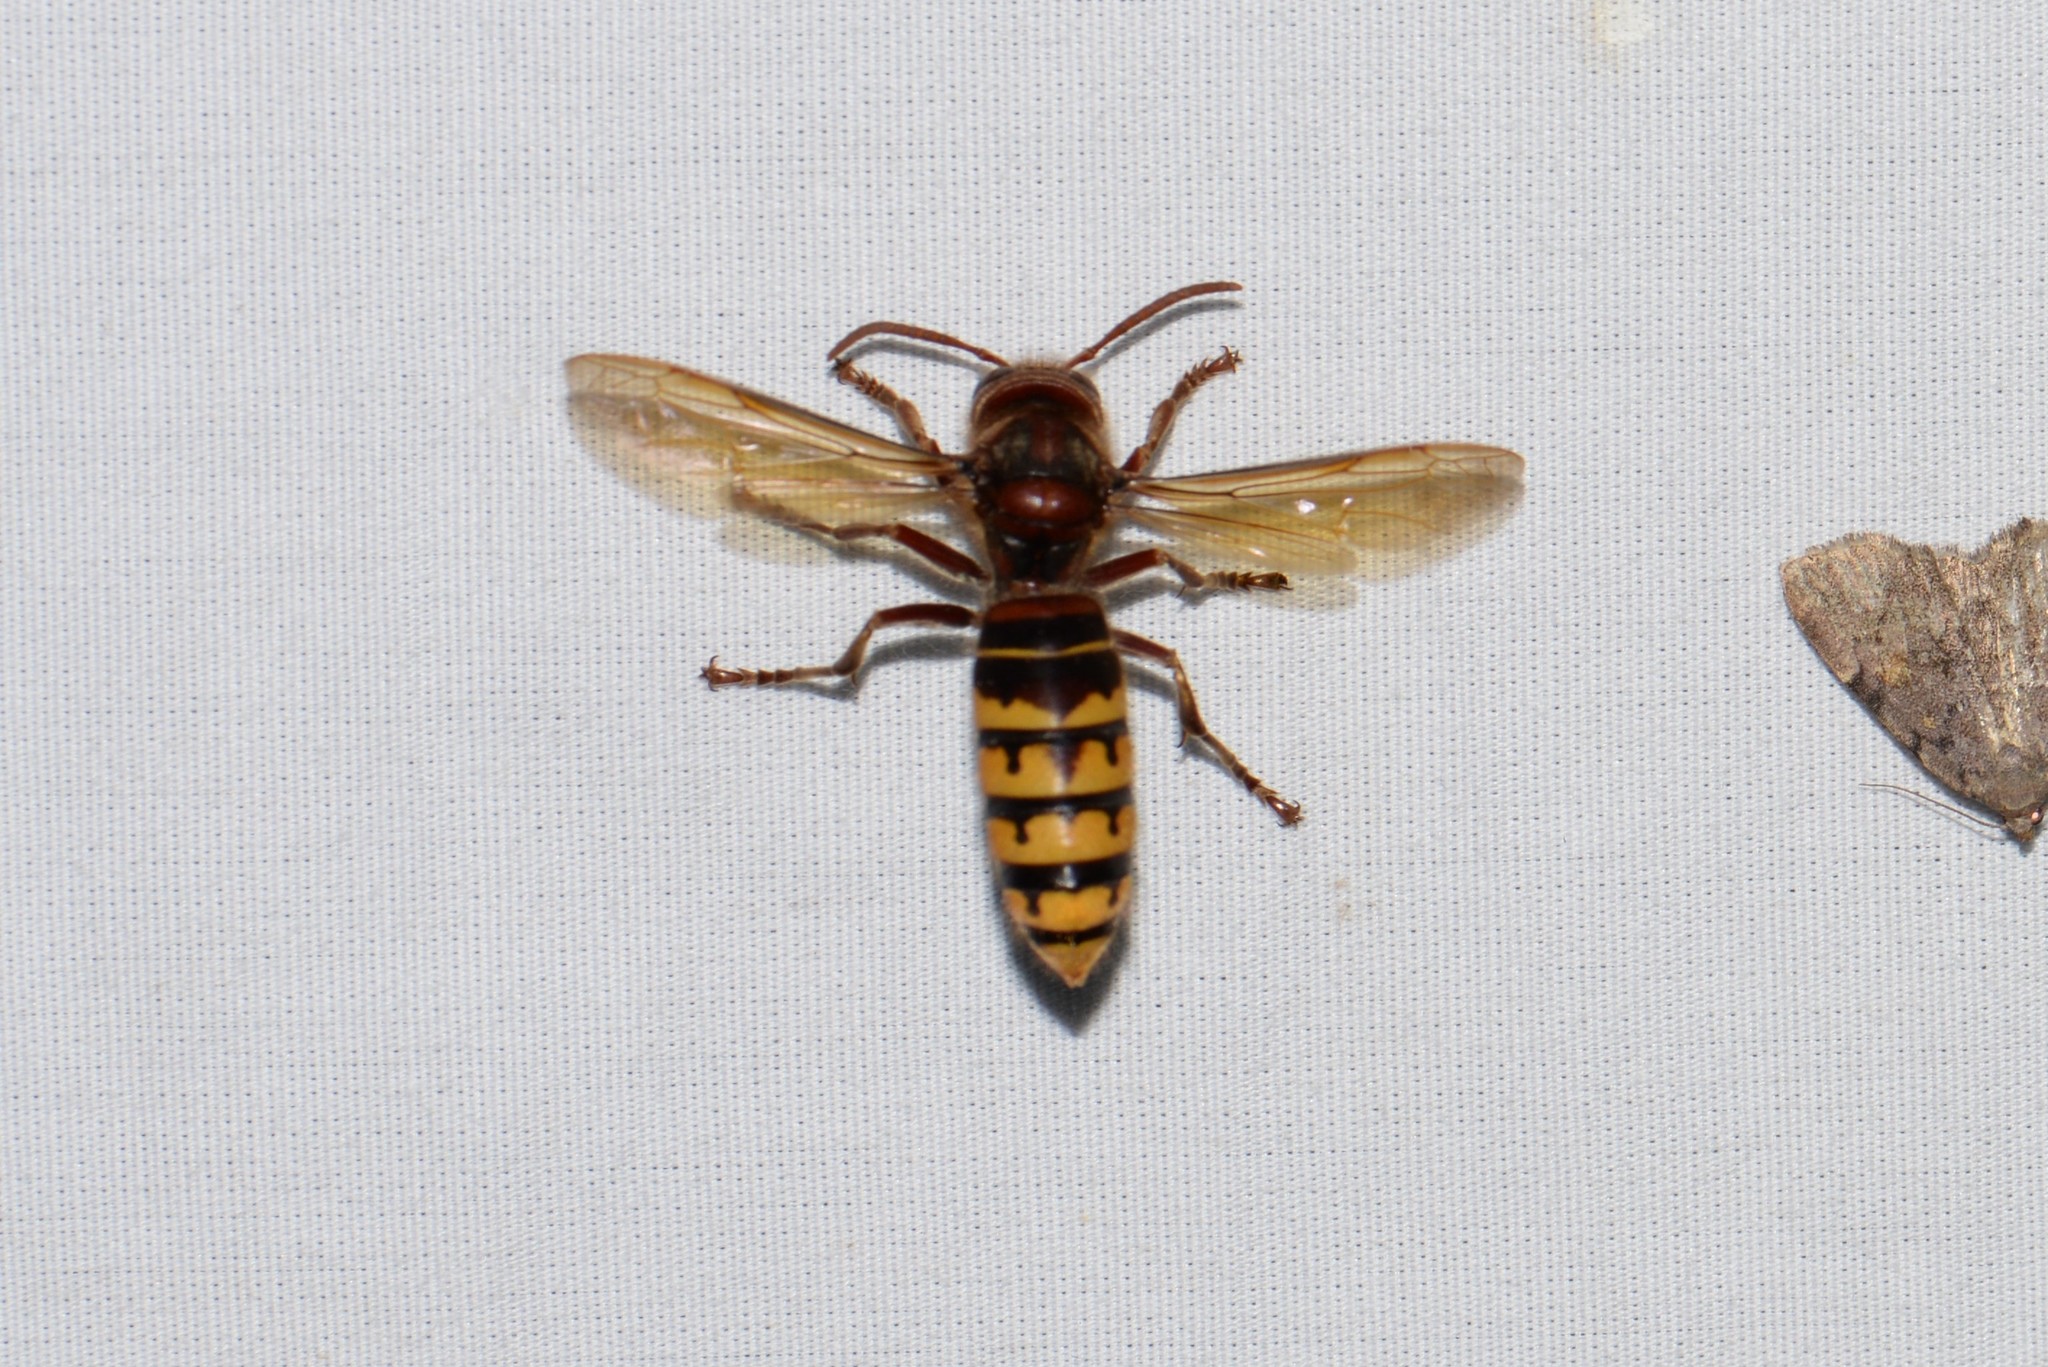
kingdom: Animalia
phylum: Arthropoda
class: Insecta
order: Hymenoptera
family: Vespidae
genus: Vespa
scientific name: Vespa crabro
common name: Hornet
